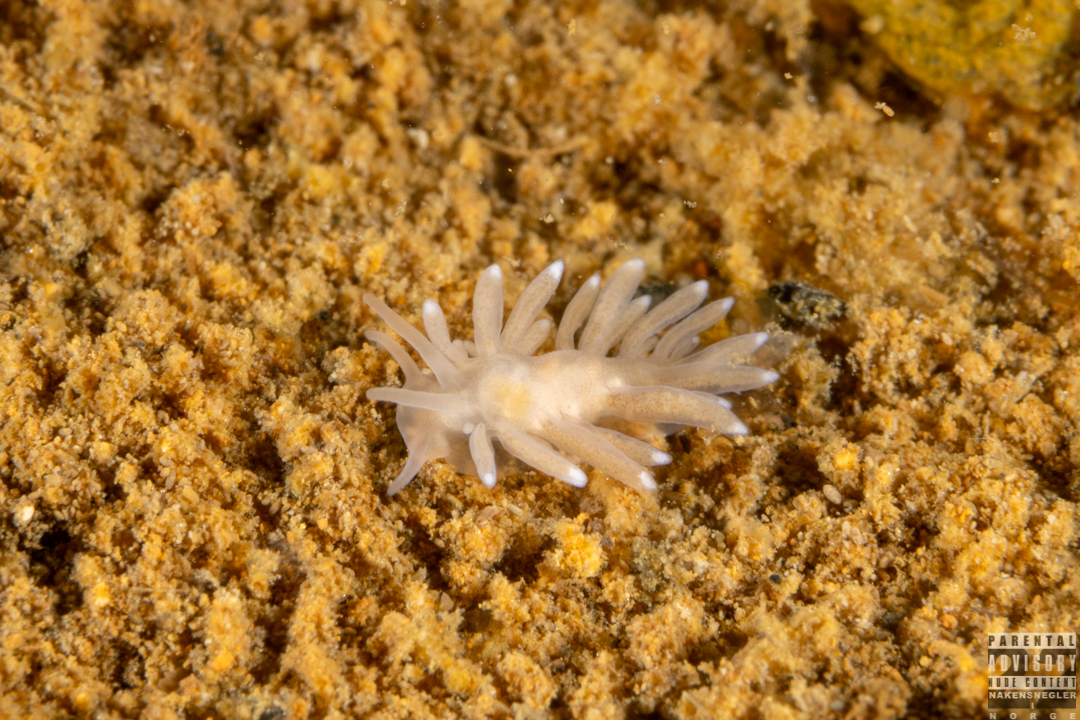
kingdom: Animalia
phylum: Mollusca
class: Gastropoda
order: Nudibranchia
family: Cuthonidae
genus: Bohuslania
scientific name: Bohuslania matsmichaeli
